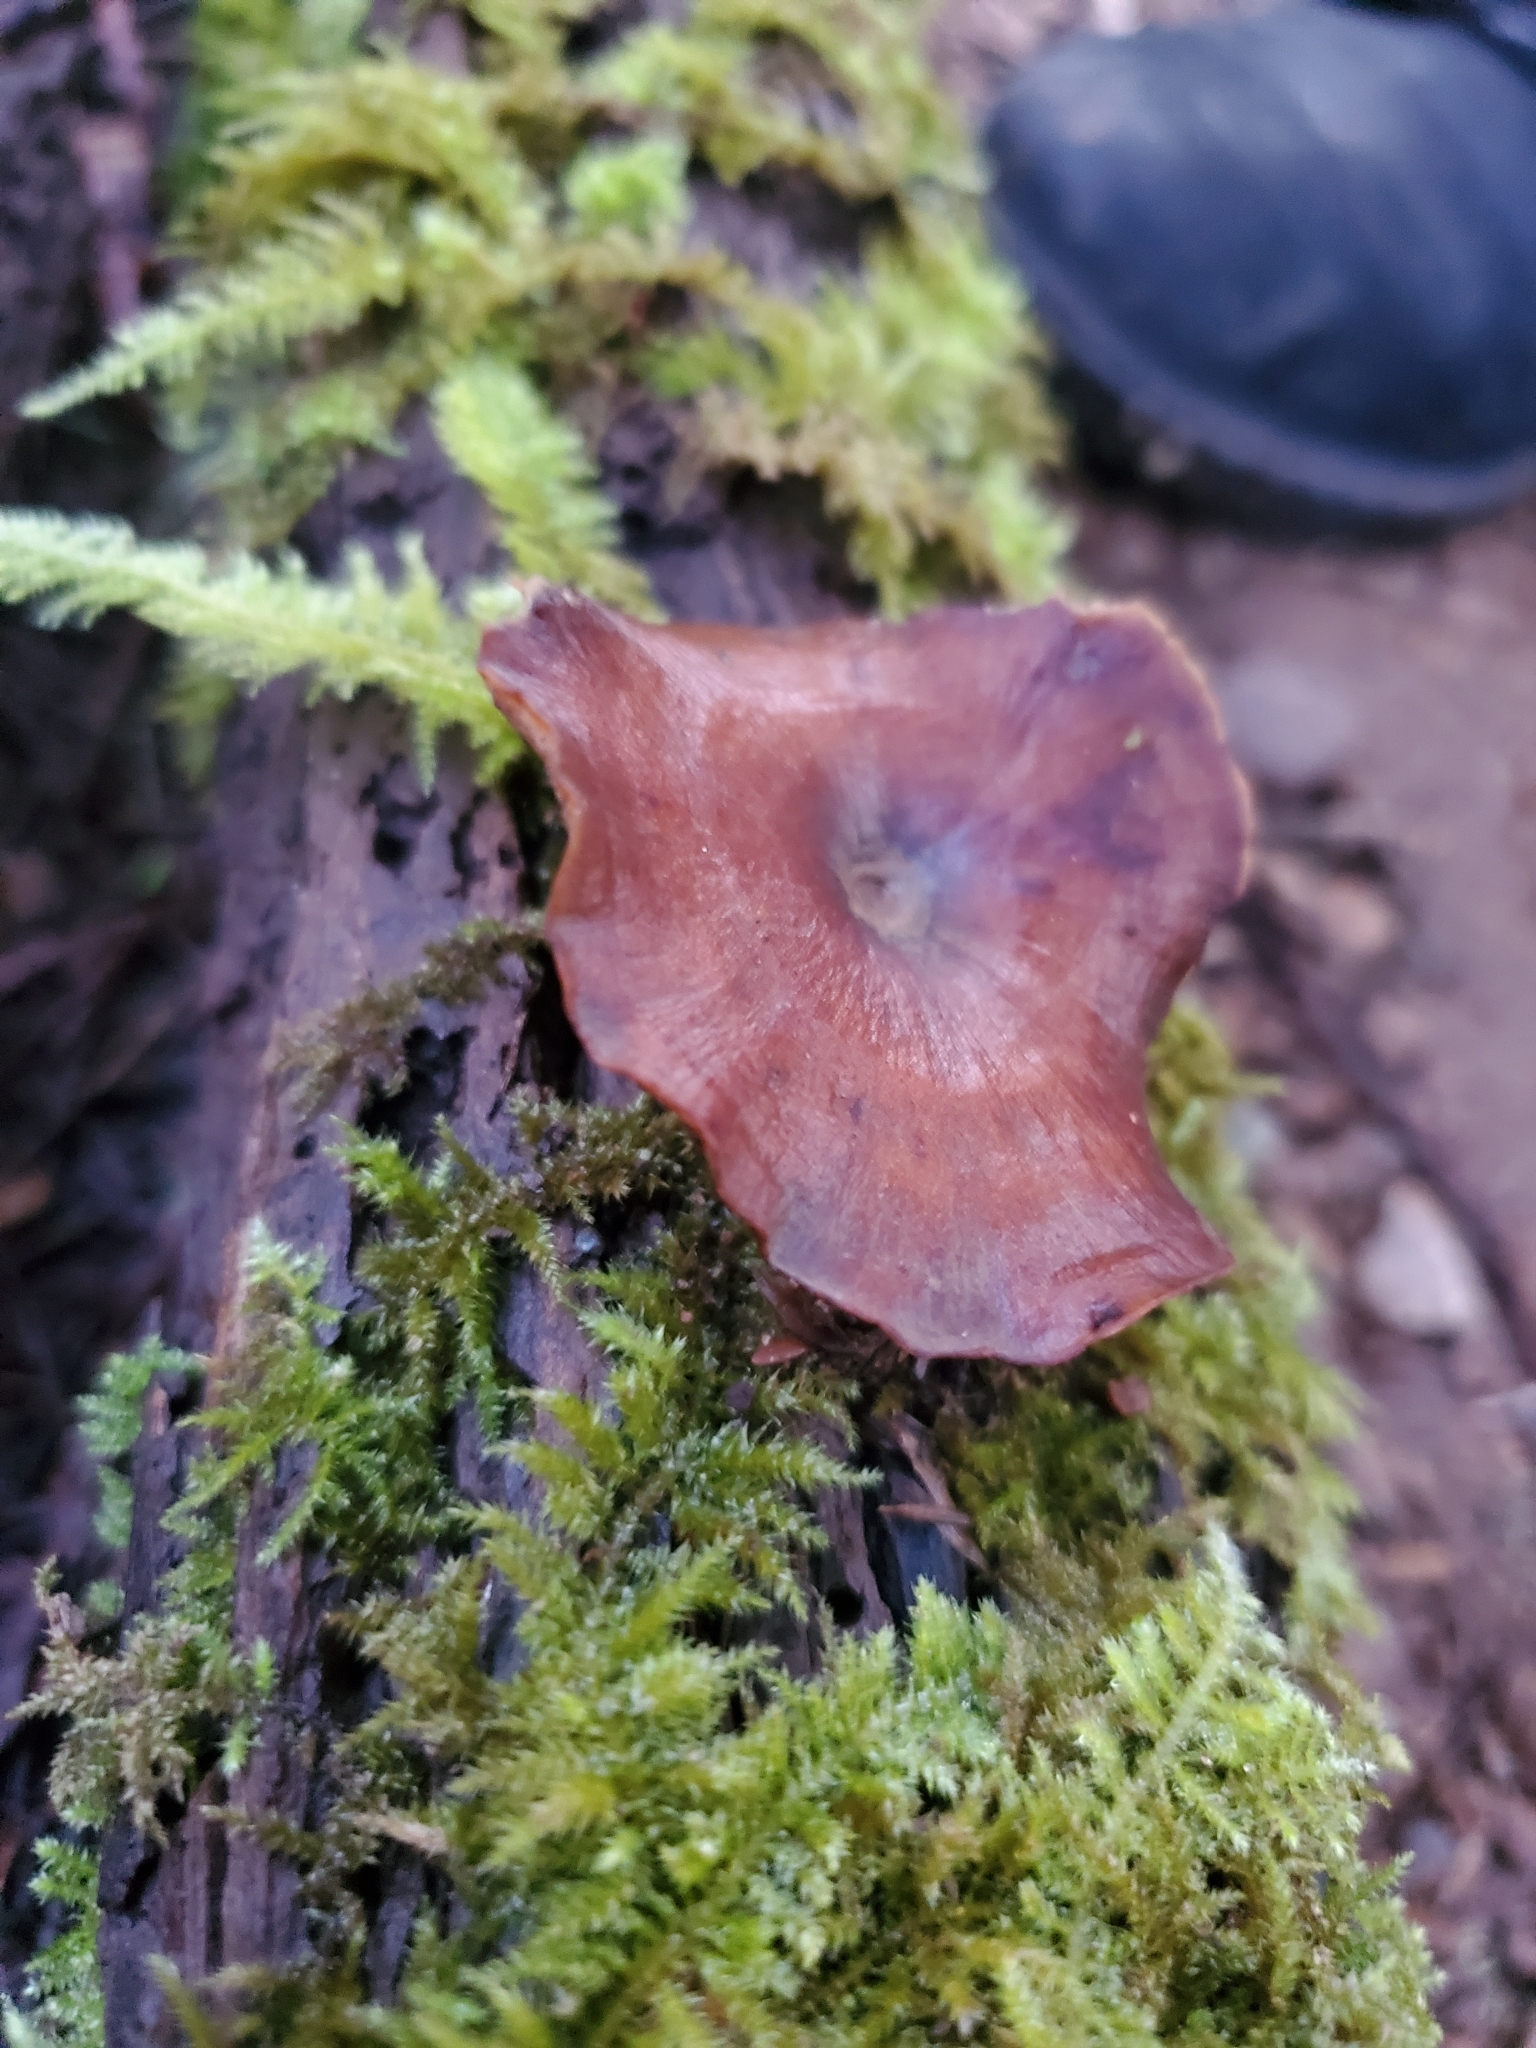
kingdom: Fungi
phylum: Basidiomycota
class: Agaricomycetes
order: Polyporales
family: Polyporaceae
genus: Picipes
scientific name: Picipes badius
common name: Bay polypore
